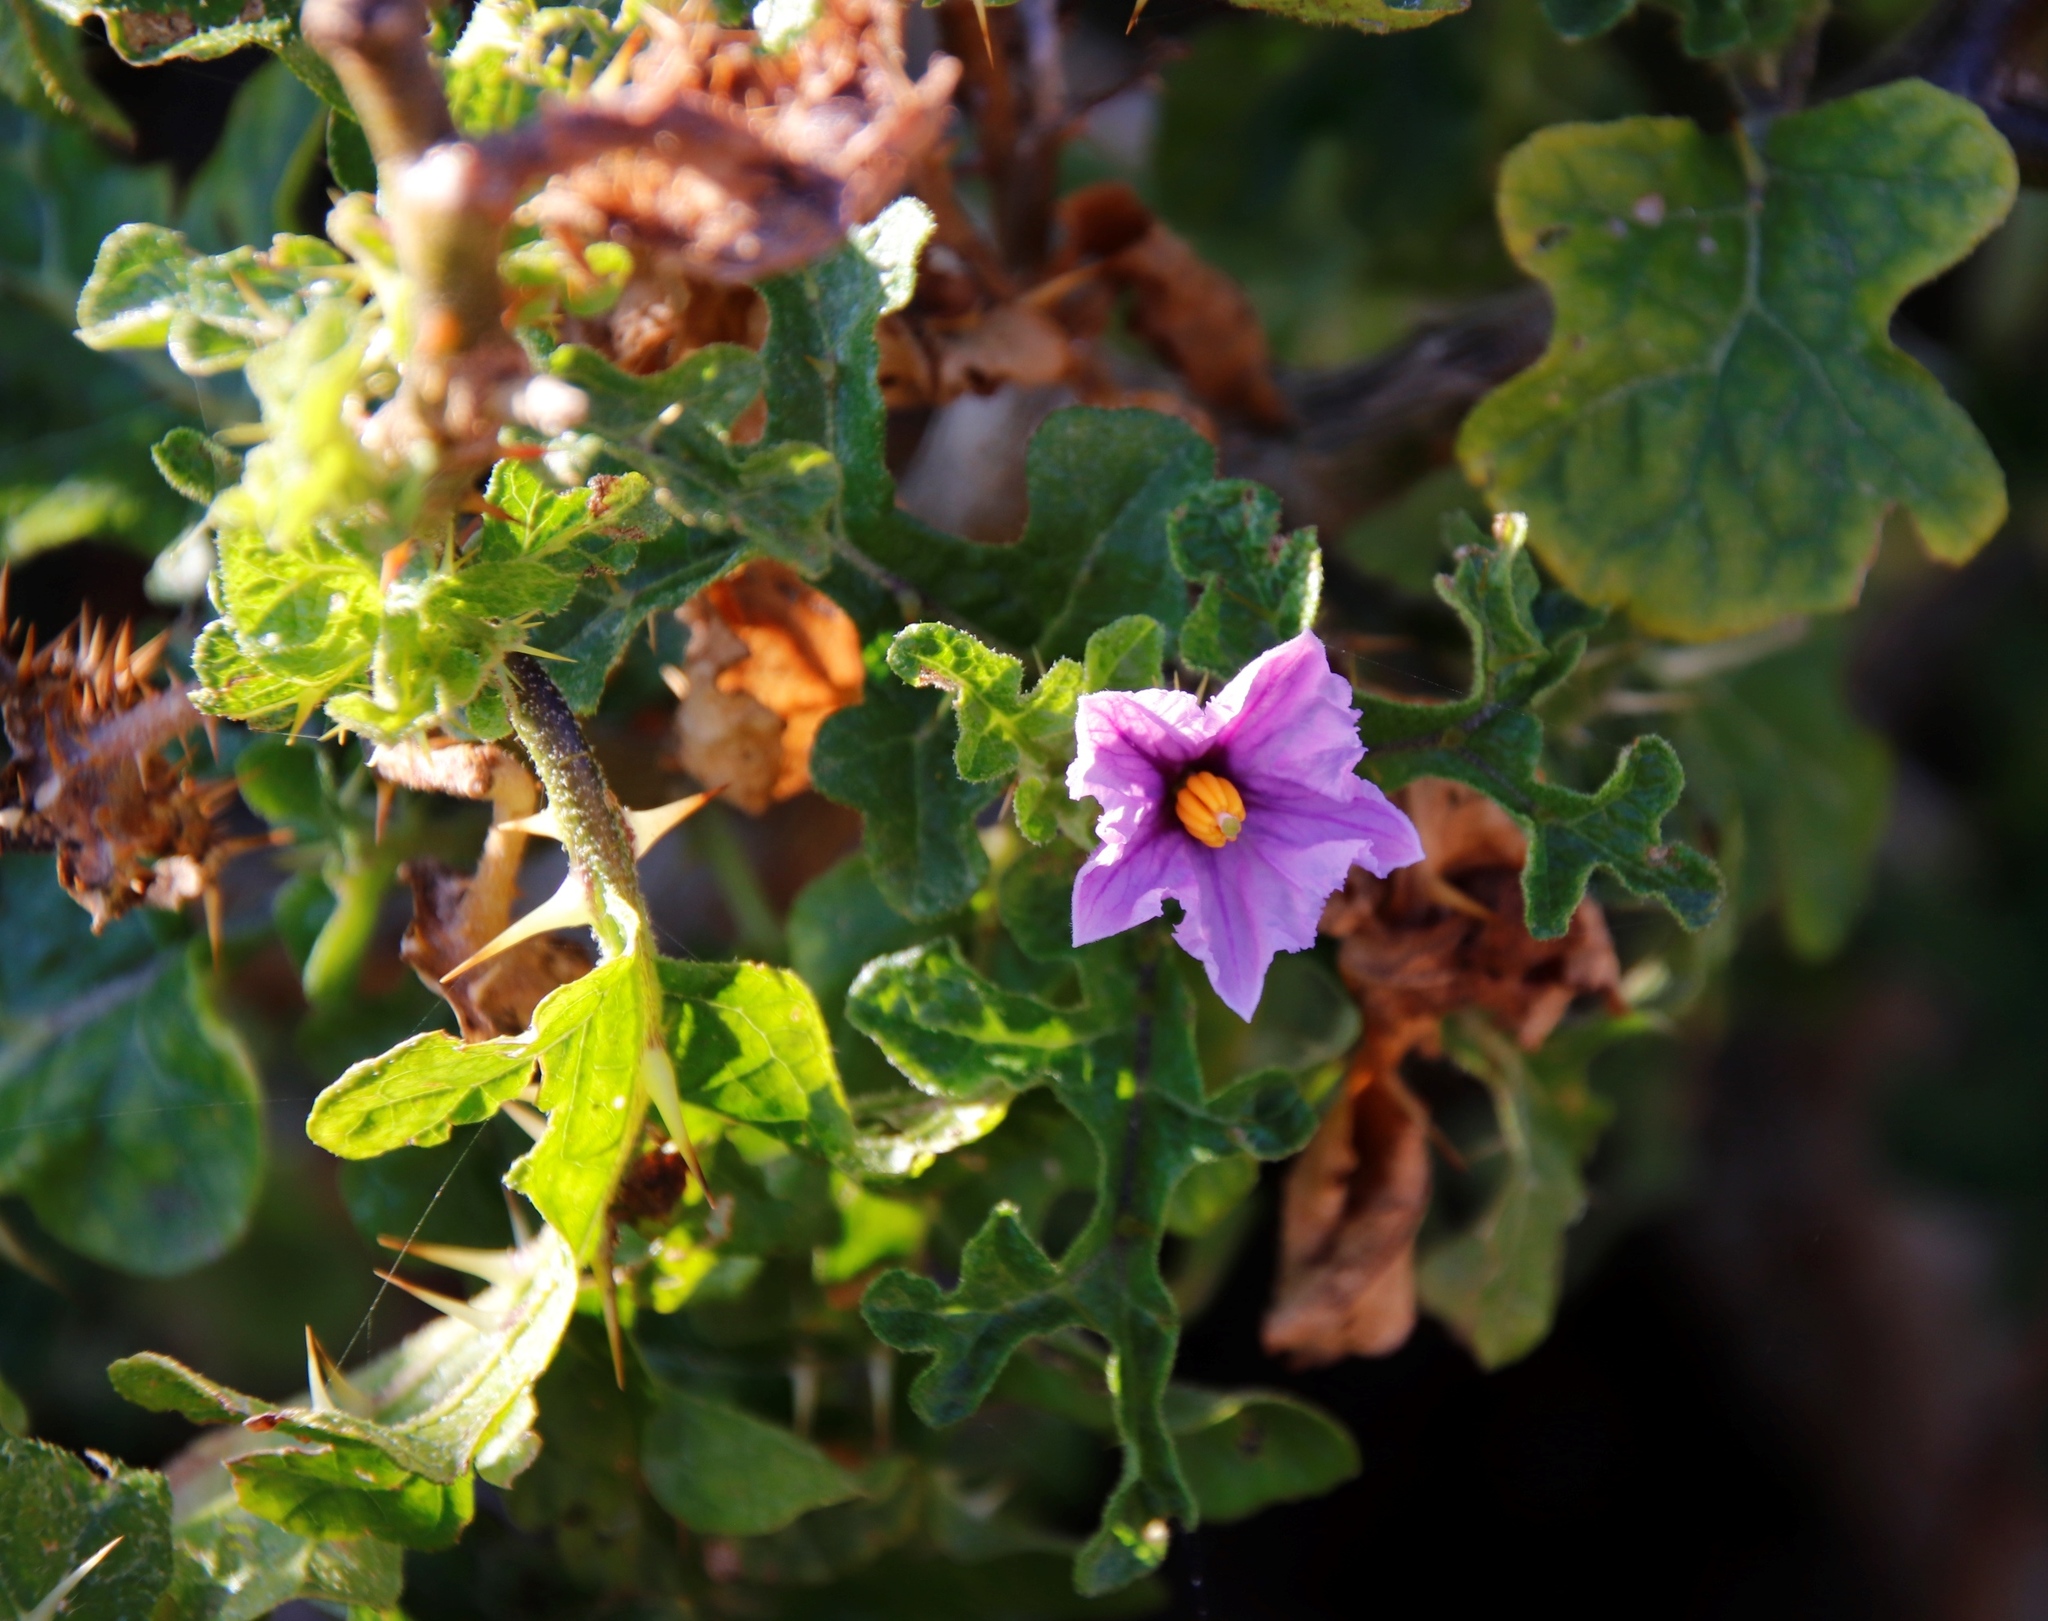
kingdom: Plantae
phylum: Tracheophyta
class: Magnoliopsida
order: Solanales
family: Solanaceae
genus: Solanum
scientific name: Solanum linnaeanum
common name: Nightshade
